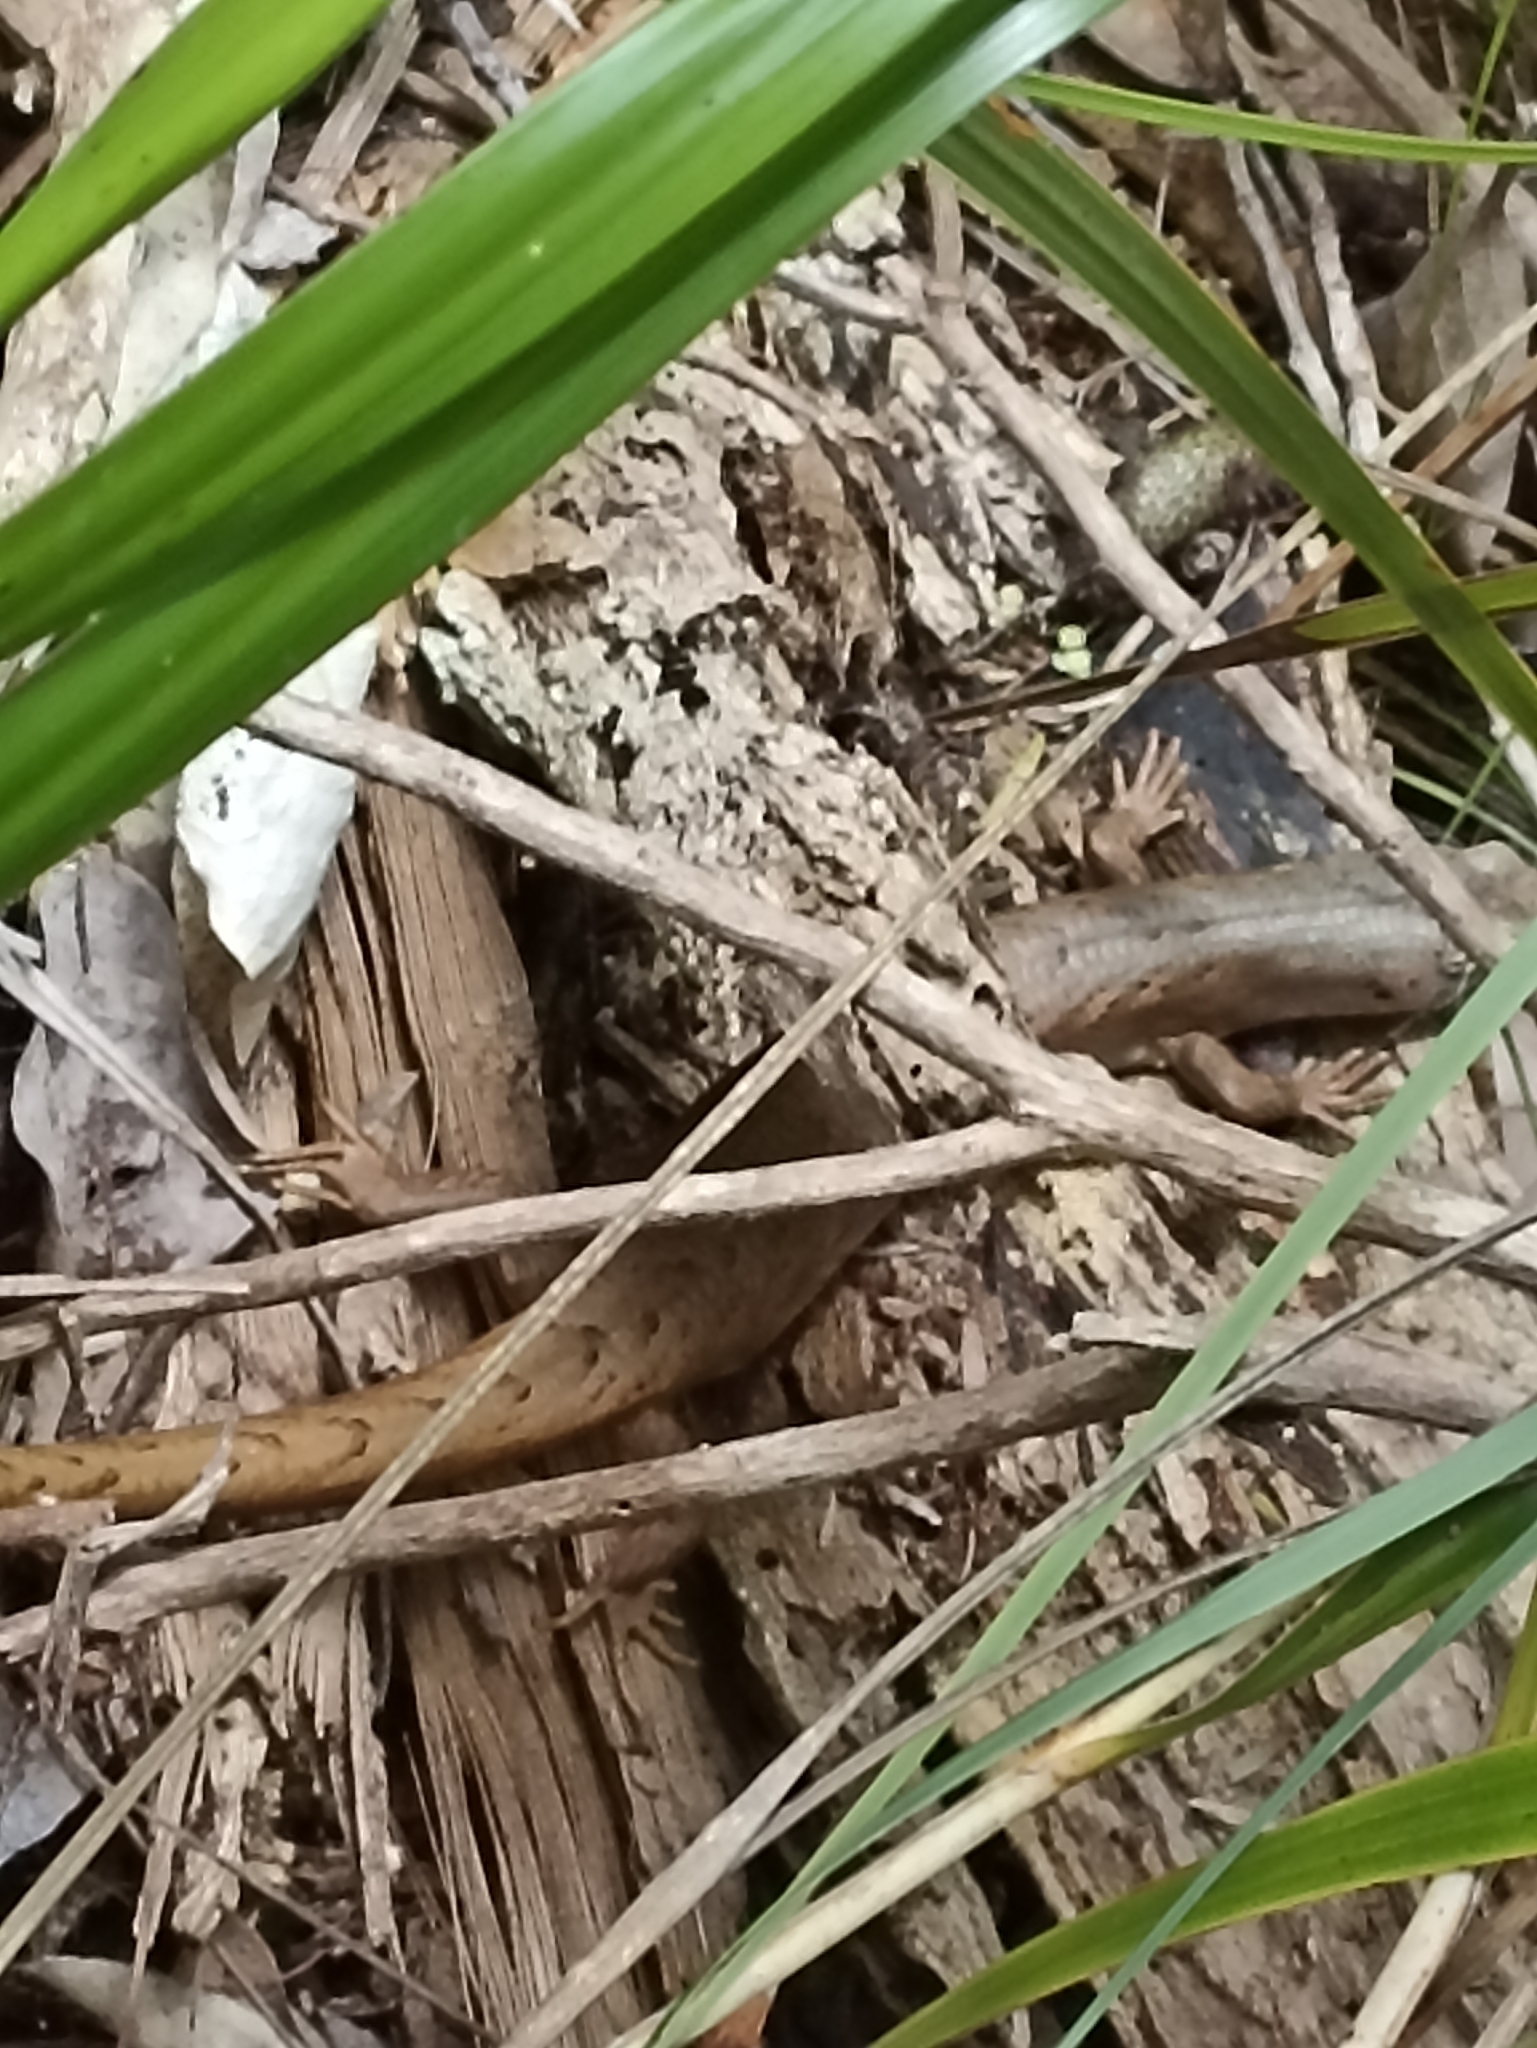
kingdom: Animalia
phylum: Chordata
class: Squamata
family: Scincidae
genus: Oligosoma
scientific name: Oligosoma homalonotum
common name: Chevron skink
